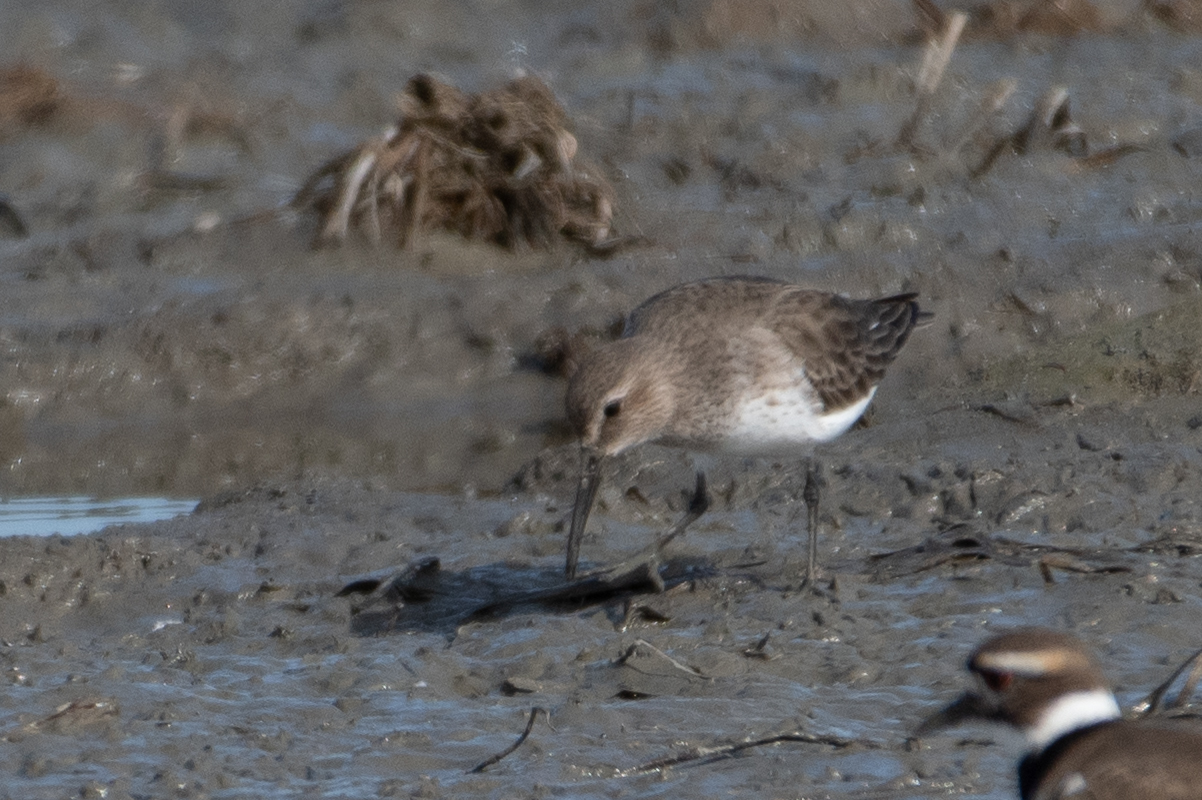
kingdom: Animalia
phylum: Chordata
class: Aves
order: Charadriiformes
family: Scolopacidae
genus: Calidris
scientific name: Calidris alpina
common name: Dunlin
